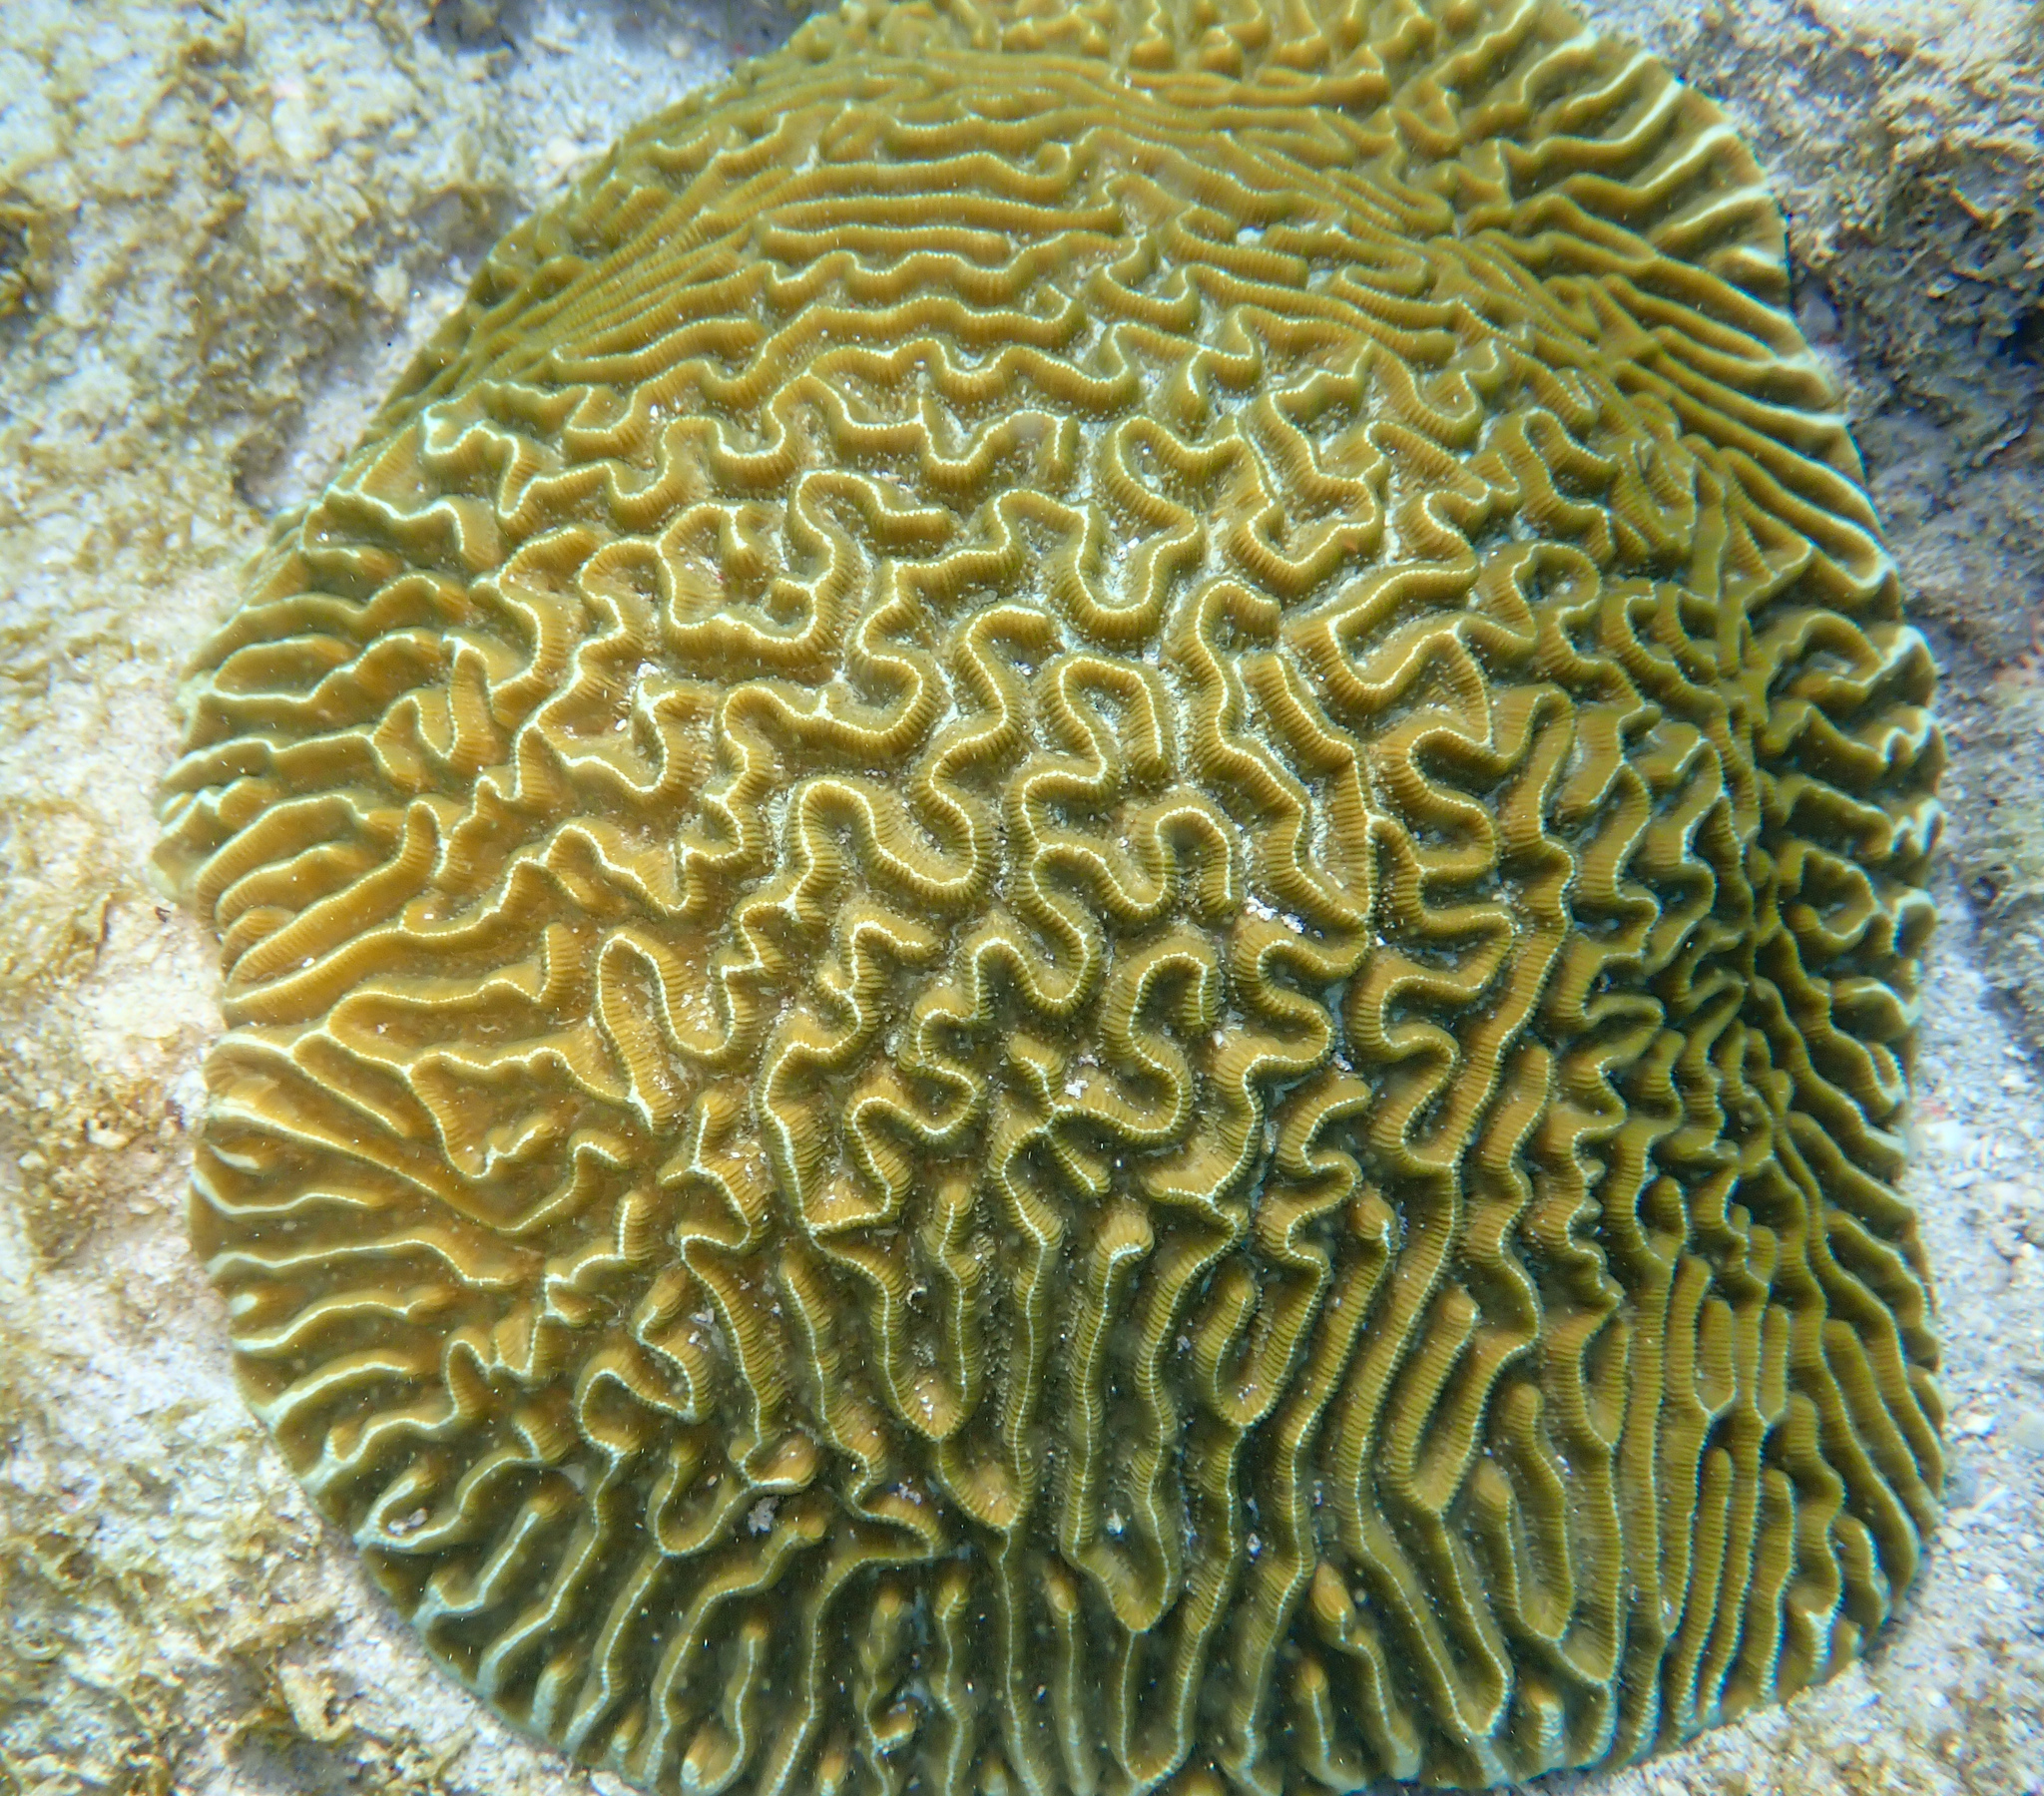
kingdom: Animalia
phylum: Cnidaria
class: Anthozoa
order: Scleractinia
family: Faviidae
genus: Pseudodiploria
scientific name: Pseudodiploria strigosa
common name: Symmetrical brain coral
